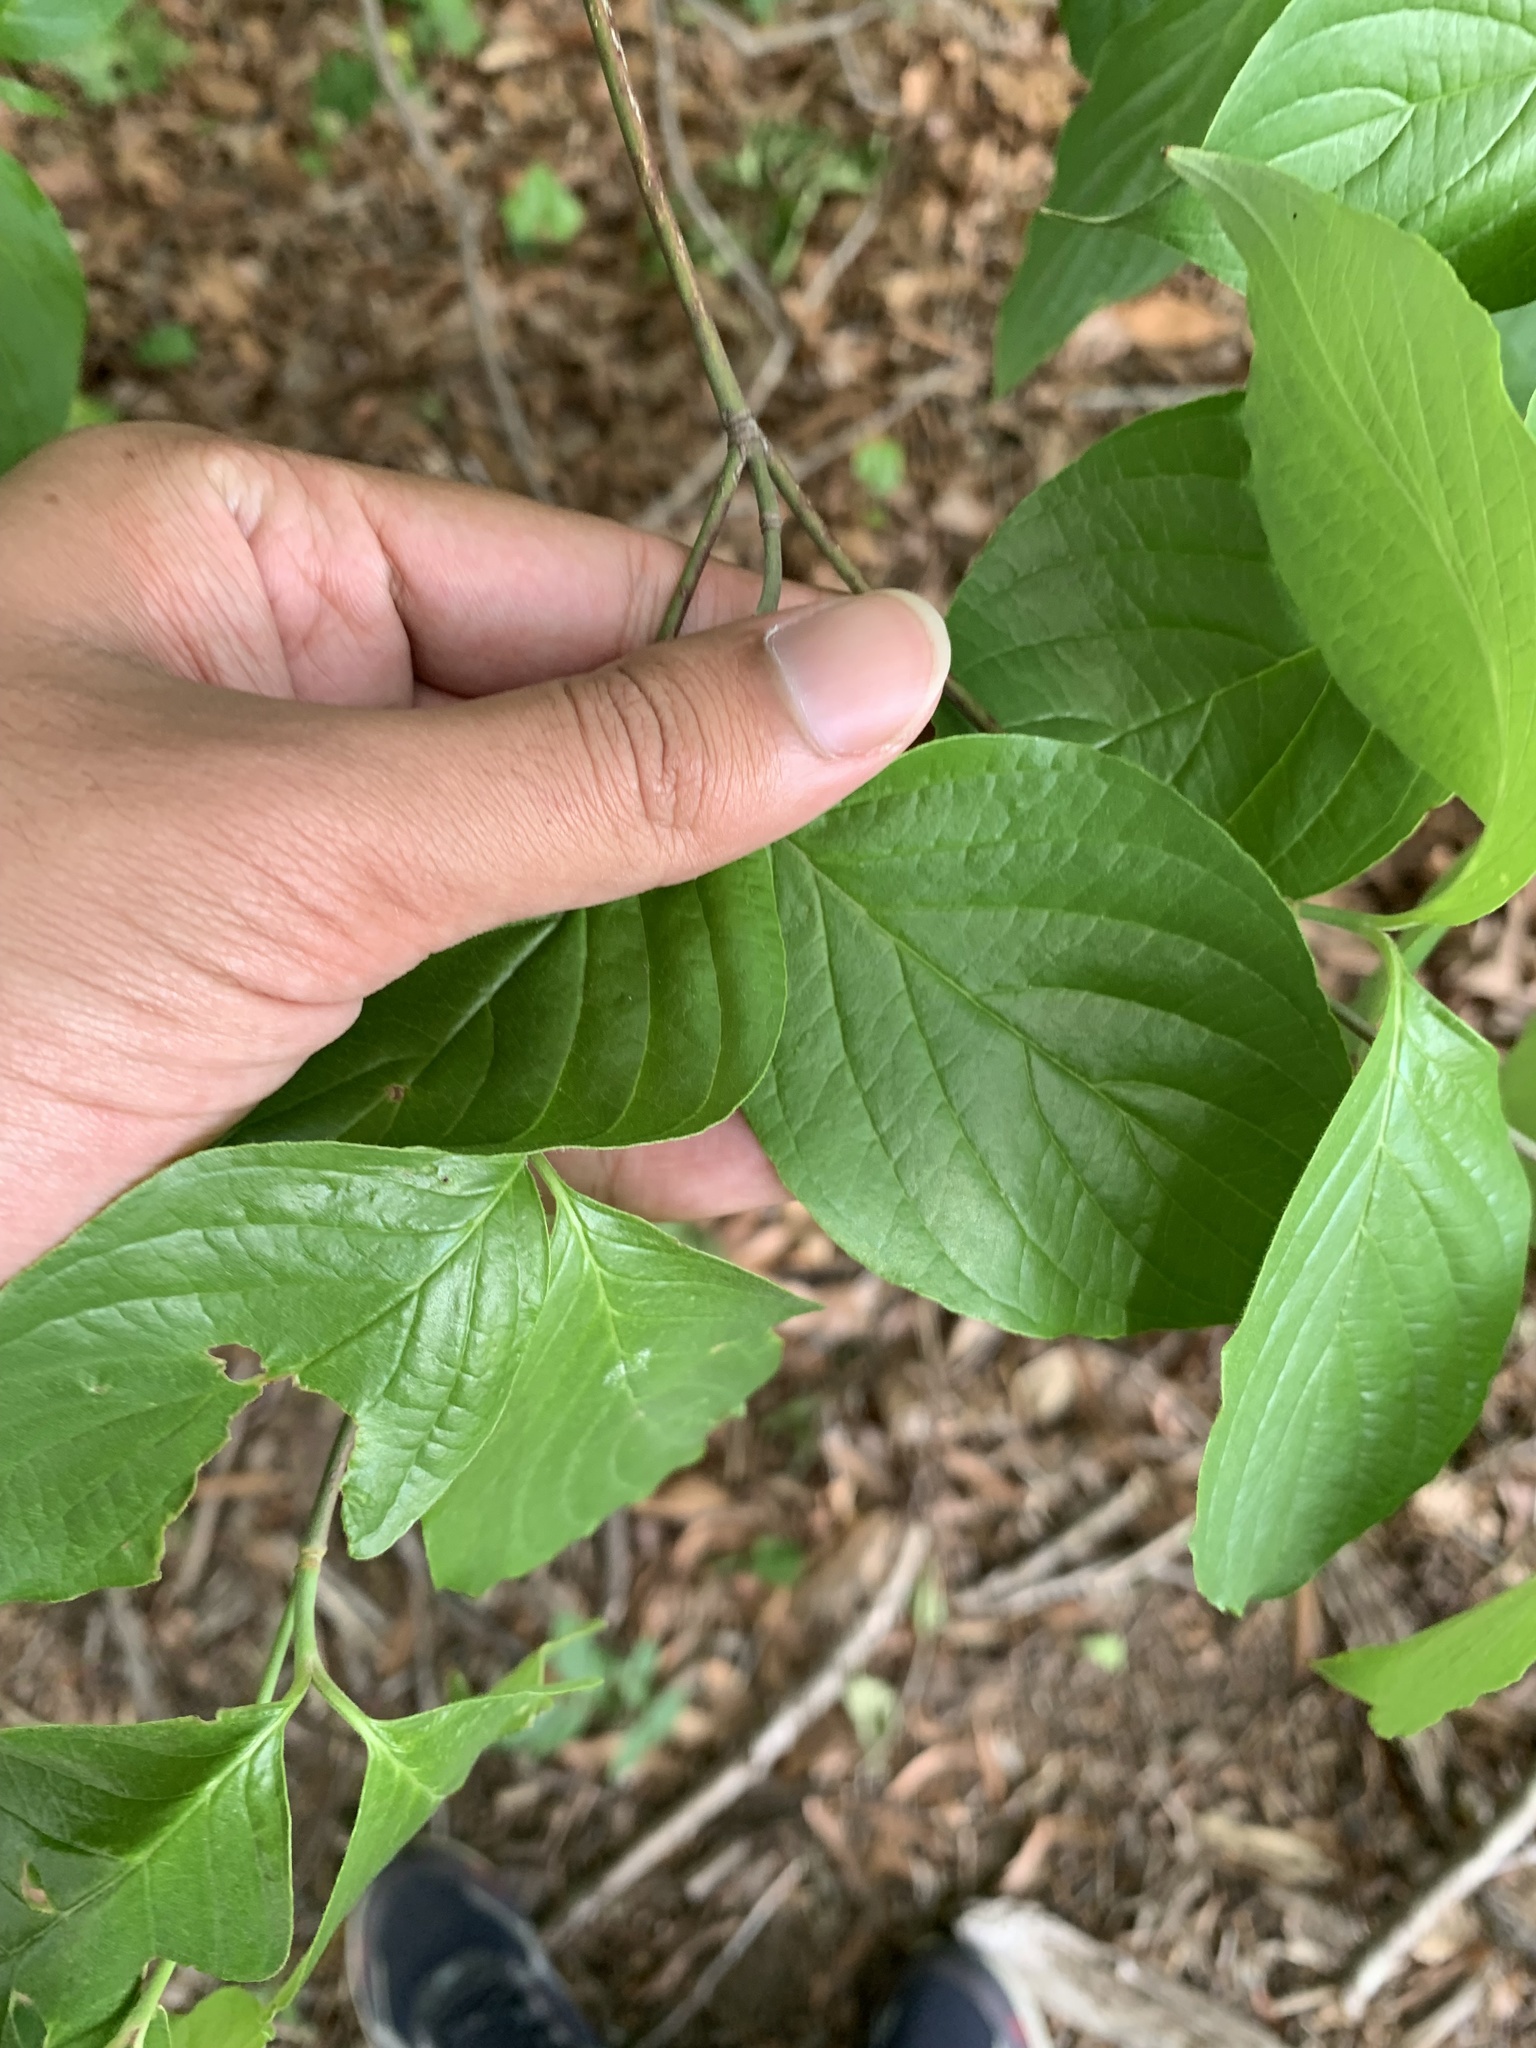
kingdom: Plantae
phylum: Tracheophyta
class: Magnoliopsida
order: Cornales
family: Cornaceae
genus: Cornus
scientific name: Cornus florida
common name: Flowering dogwood
